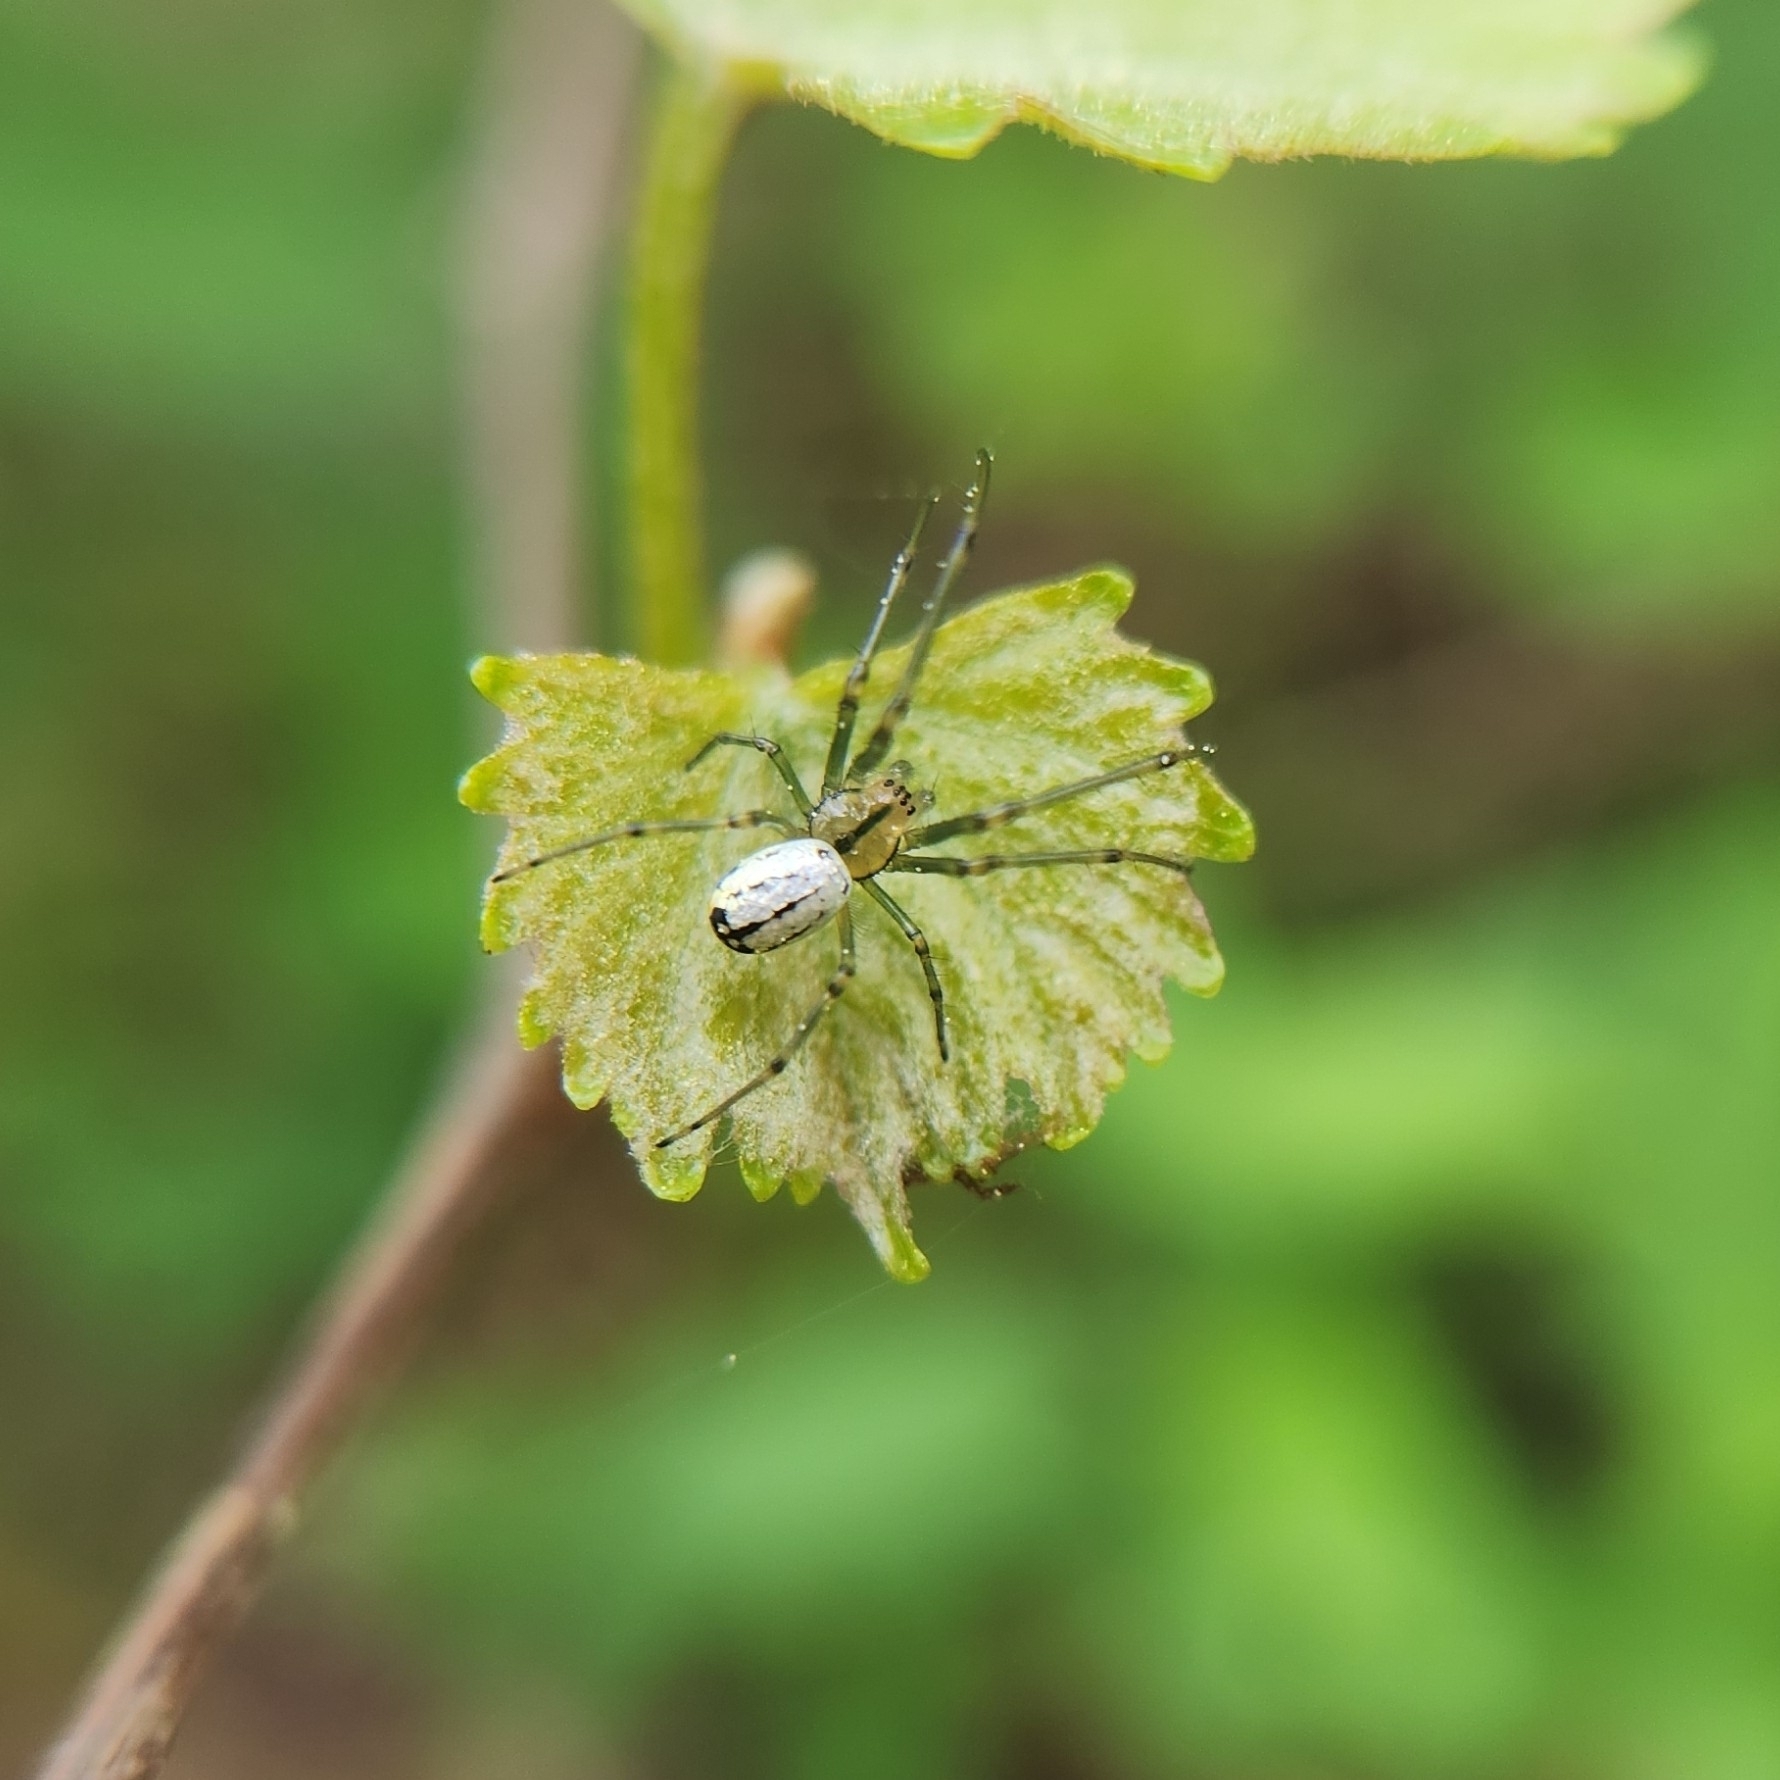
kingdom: Animalia
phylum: Arthropoda
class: Arachnida
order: Araneae
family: Tetragnathidae
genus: Leucauge
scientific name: Leucauge venusta
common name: Longjawed orb weavers
